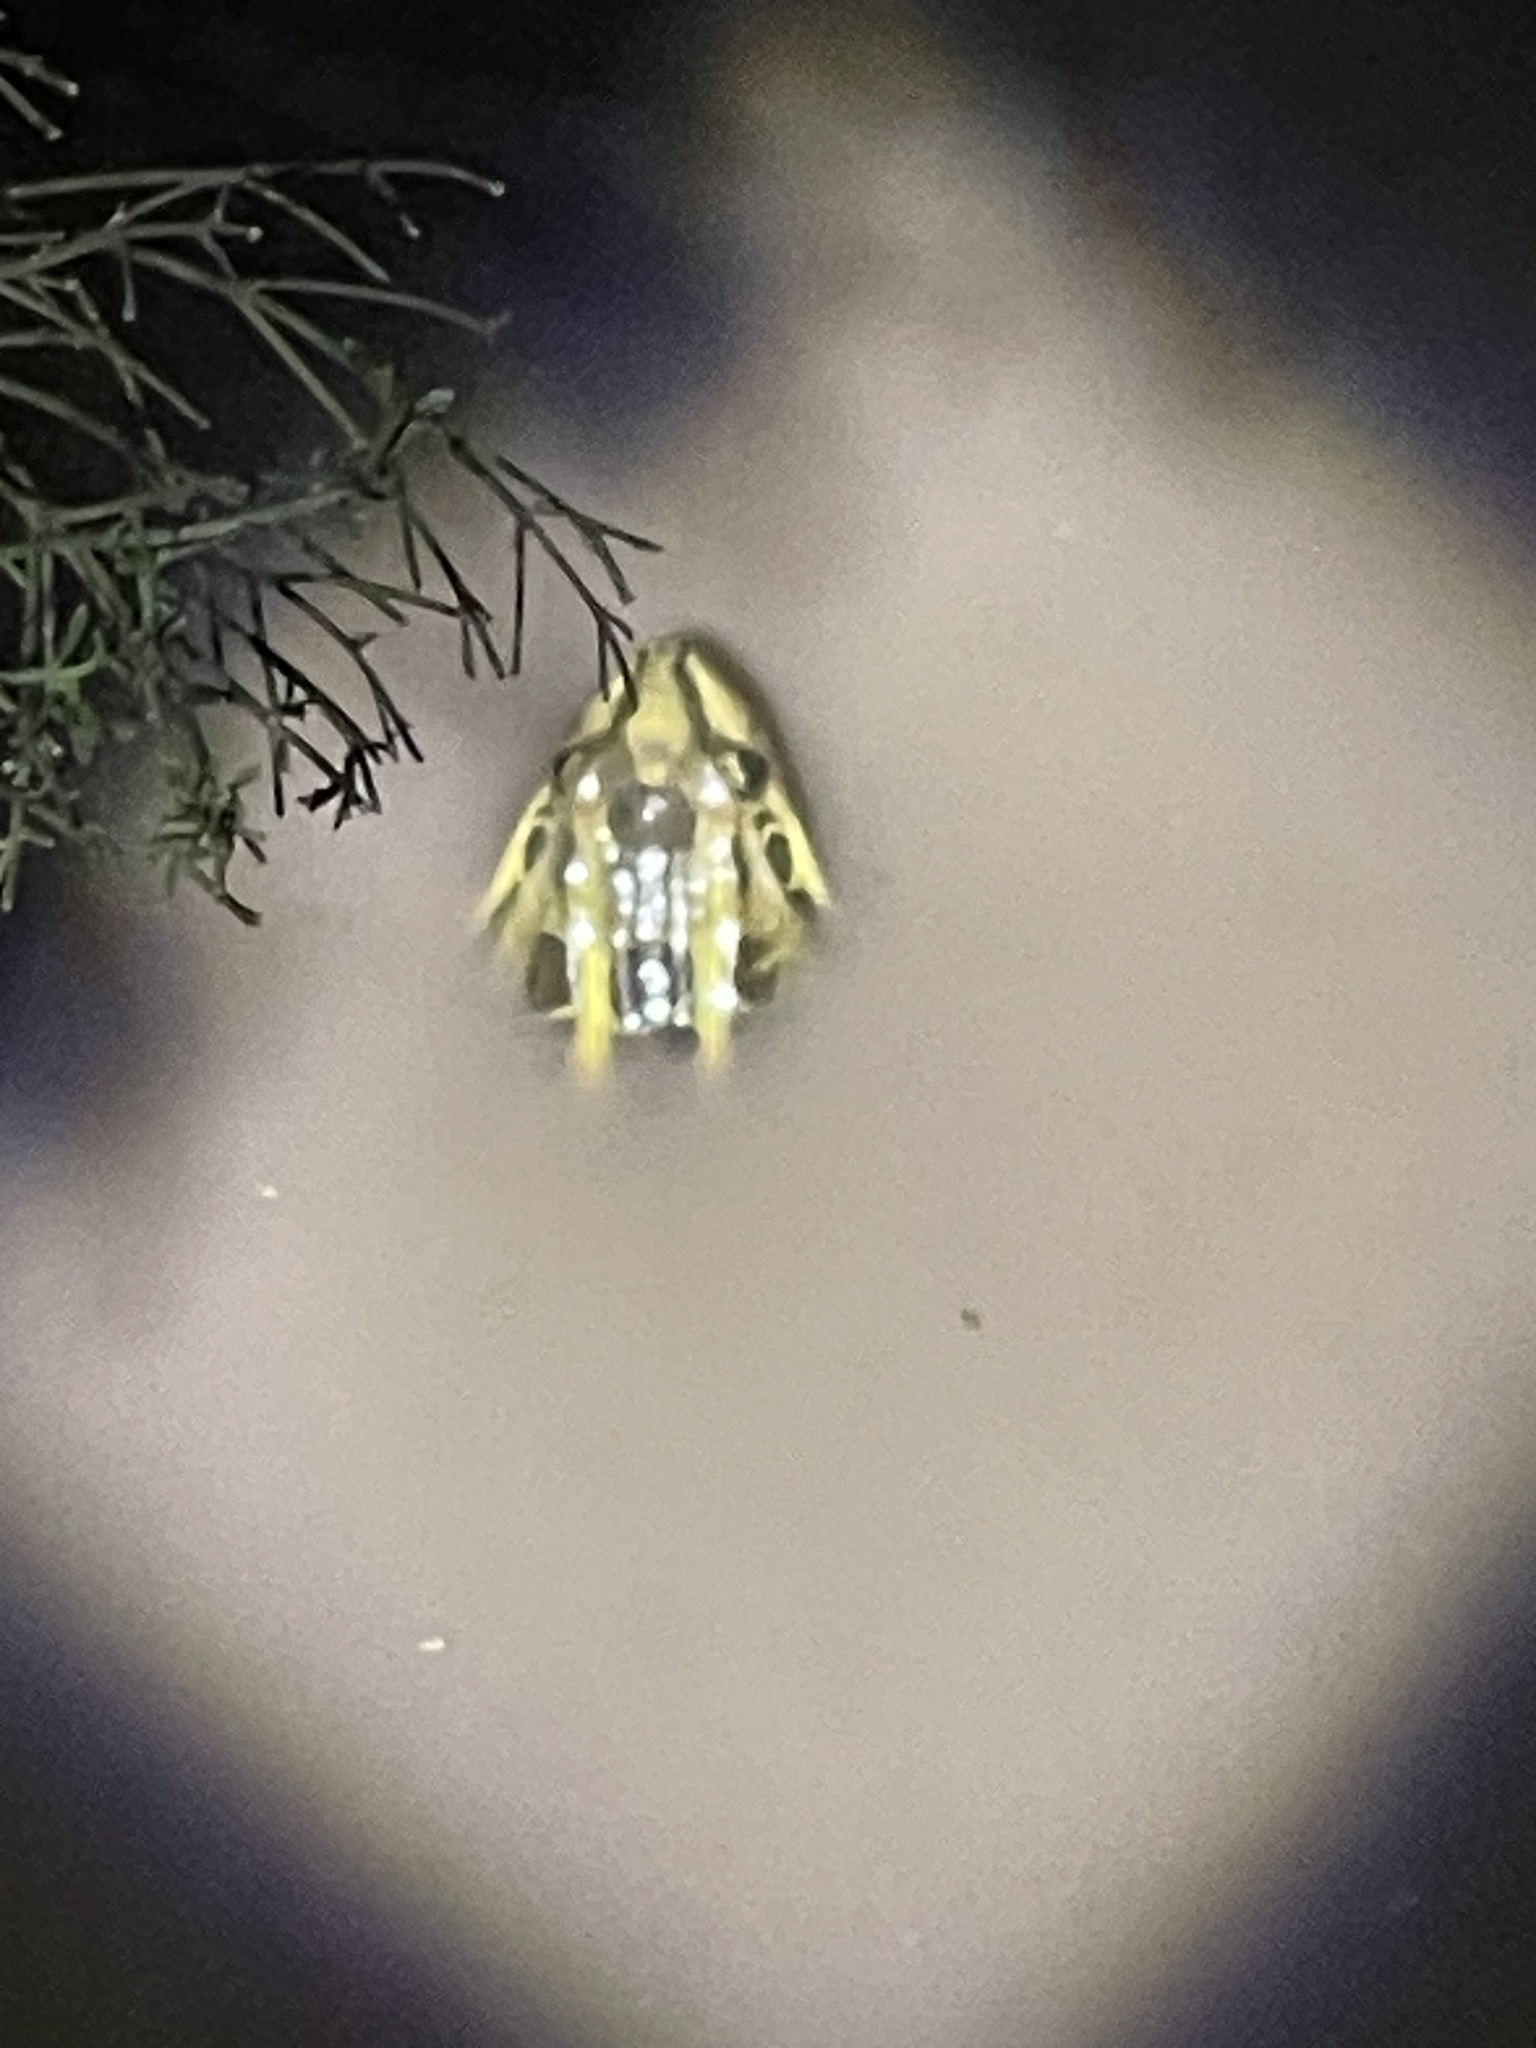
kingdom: Animalia
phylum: Chordata
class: Amphibia
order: Anura
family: Leptodactylidae
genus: Leptodactylus
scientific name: Leptodactylus luctator
